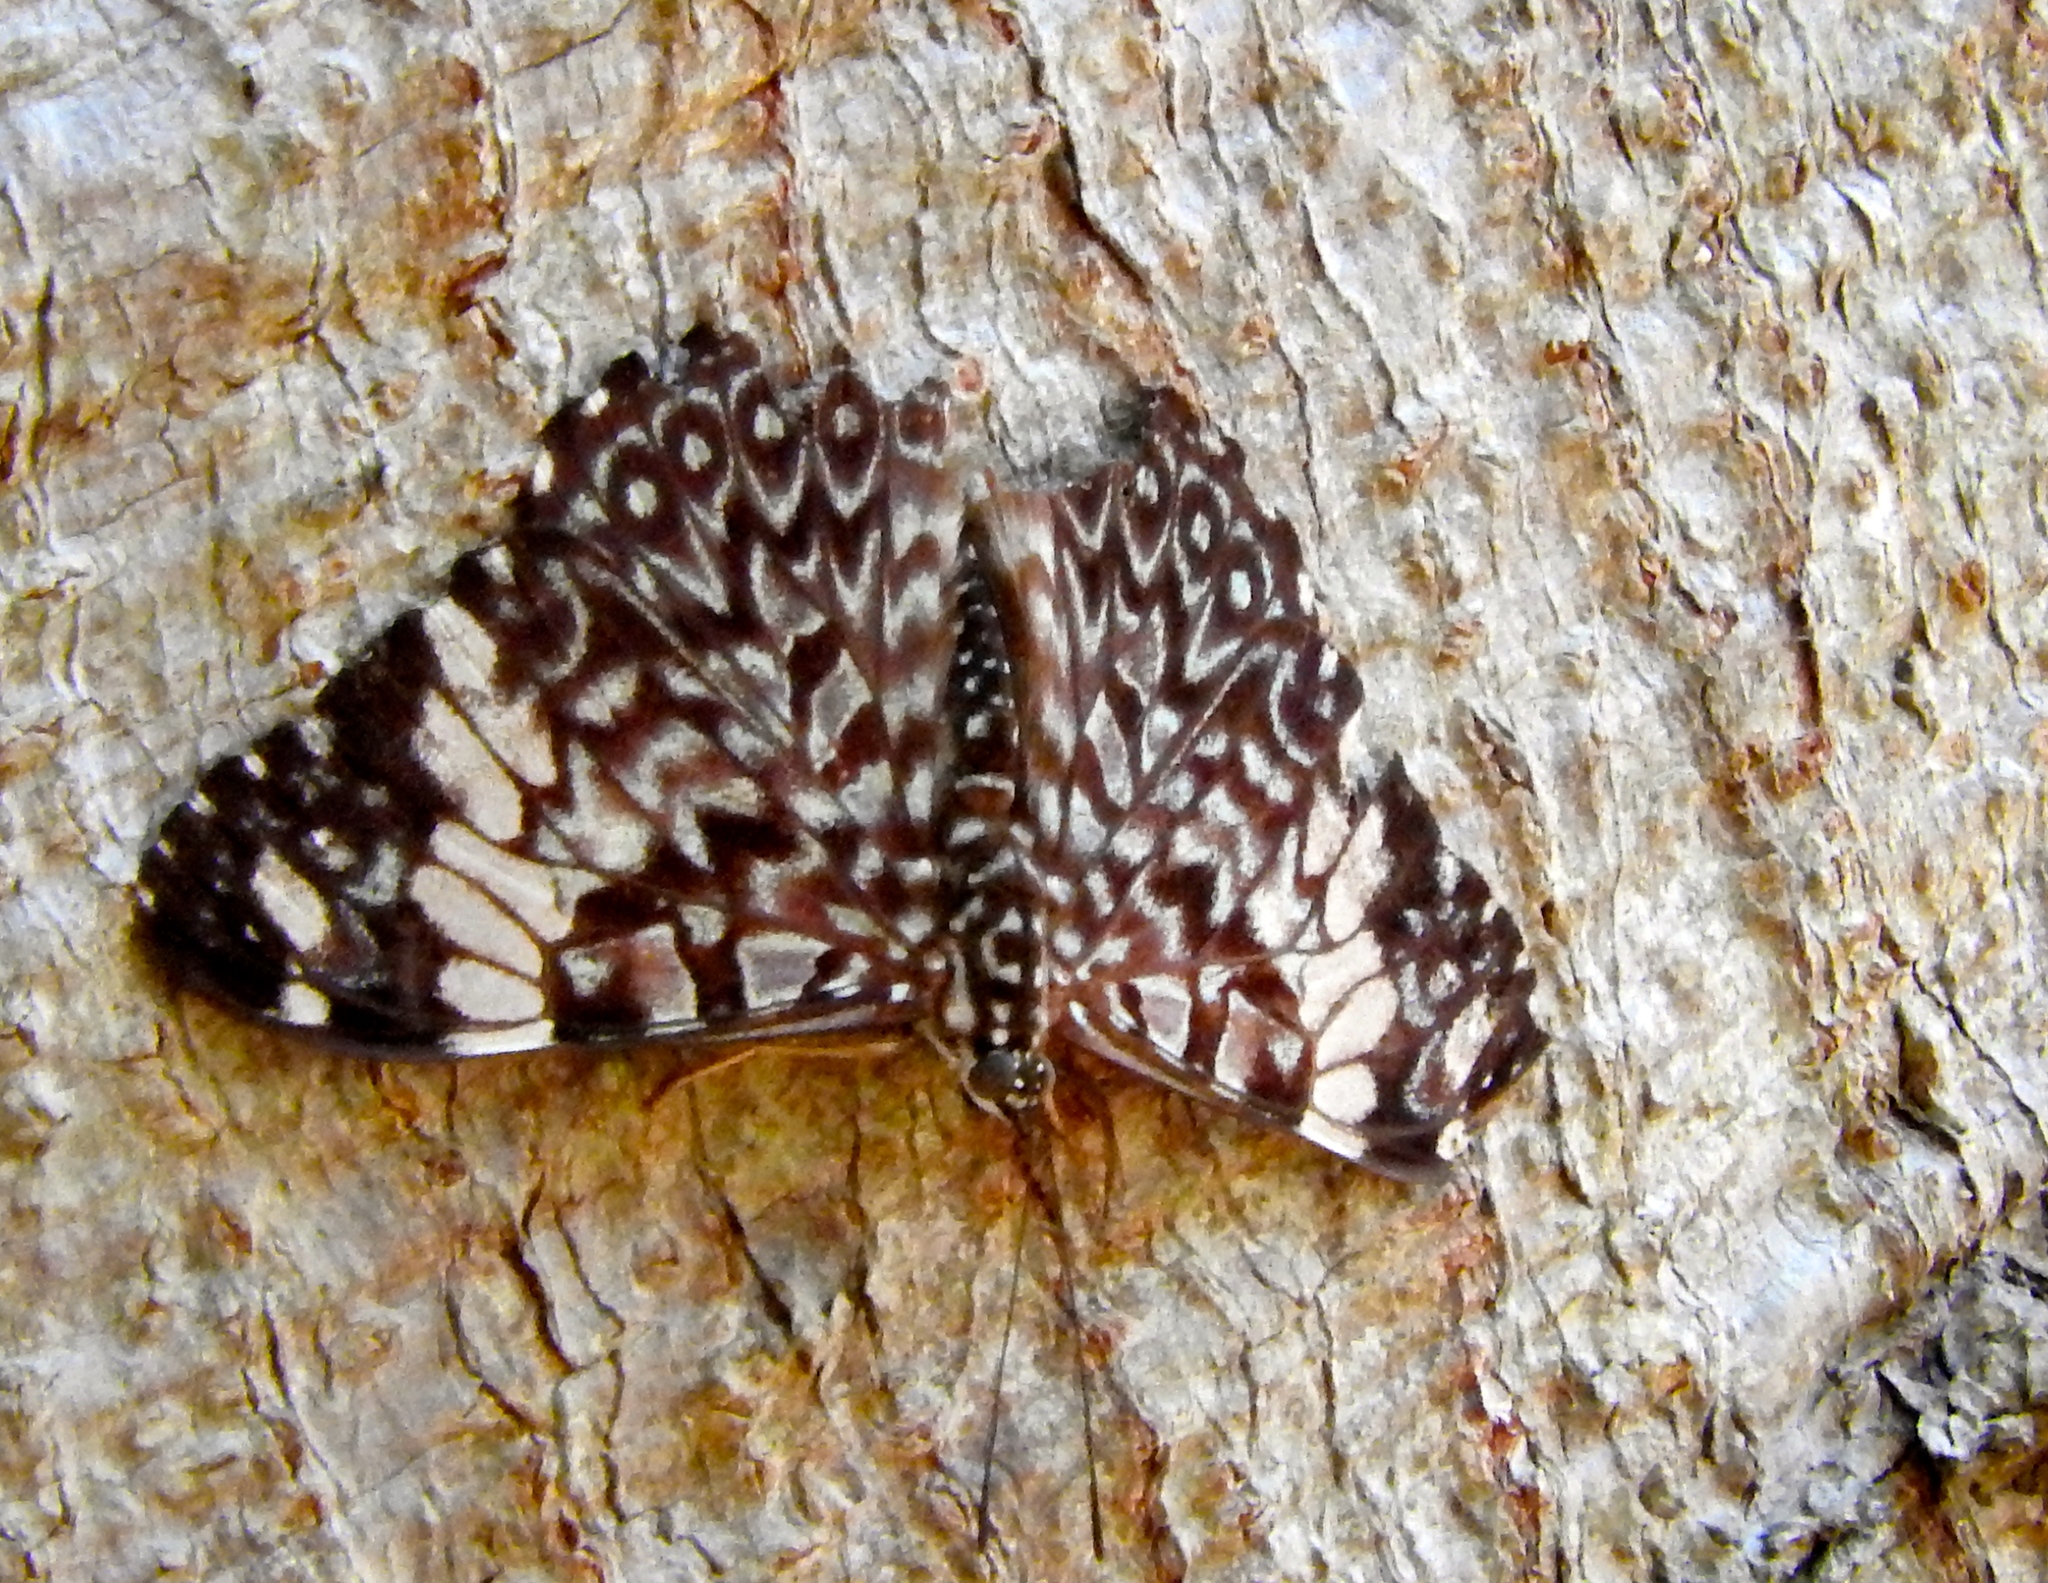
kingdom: Animalia
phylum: Arthropoda
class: Insecta
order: Lepidoptera
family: Nymphalidae
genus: Hamadryas
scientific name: Hamadryas amphinome
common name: Red cracker
